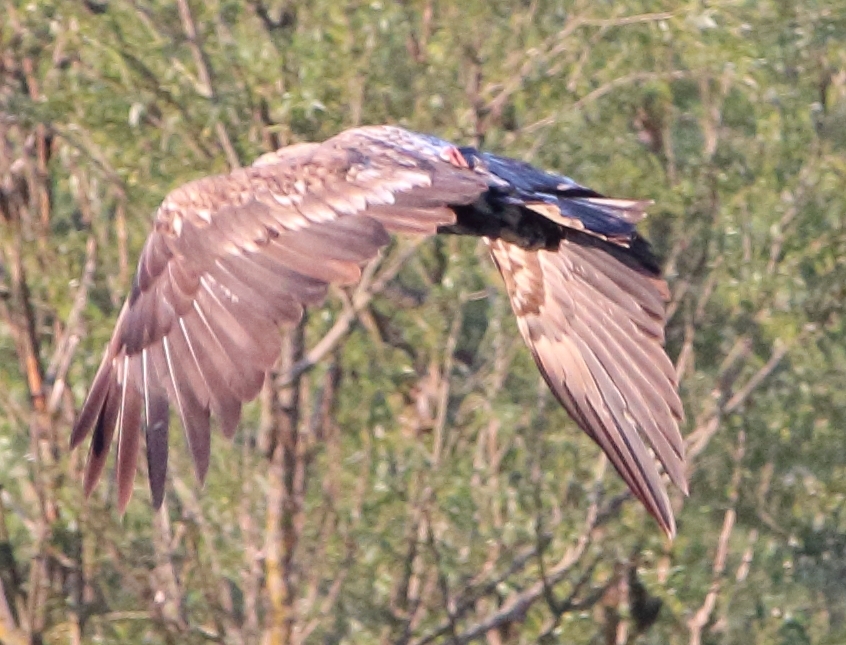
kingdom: Animalia
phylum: Chordata
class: Aves
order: Accipitriformes
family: Accipitridae
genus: Haliaeetus
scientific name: Haliaeetus albicilla
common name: White-tailed eagle
